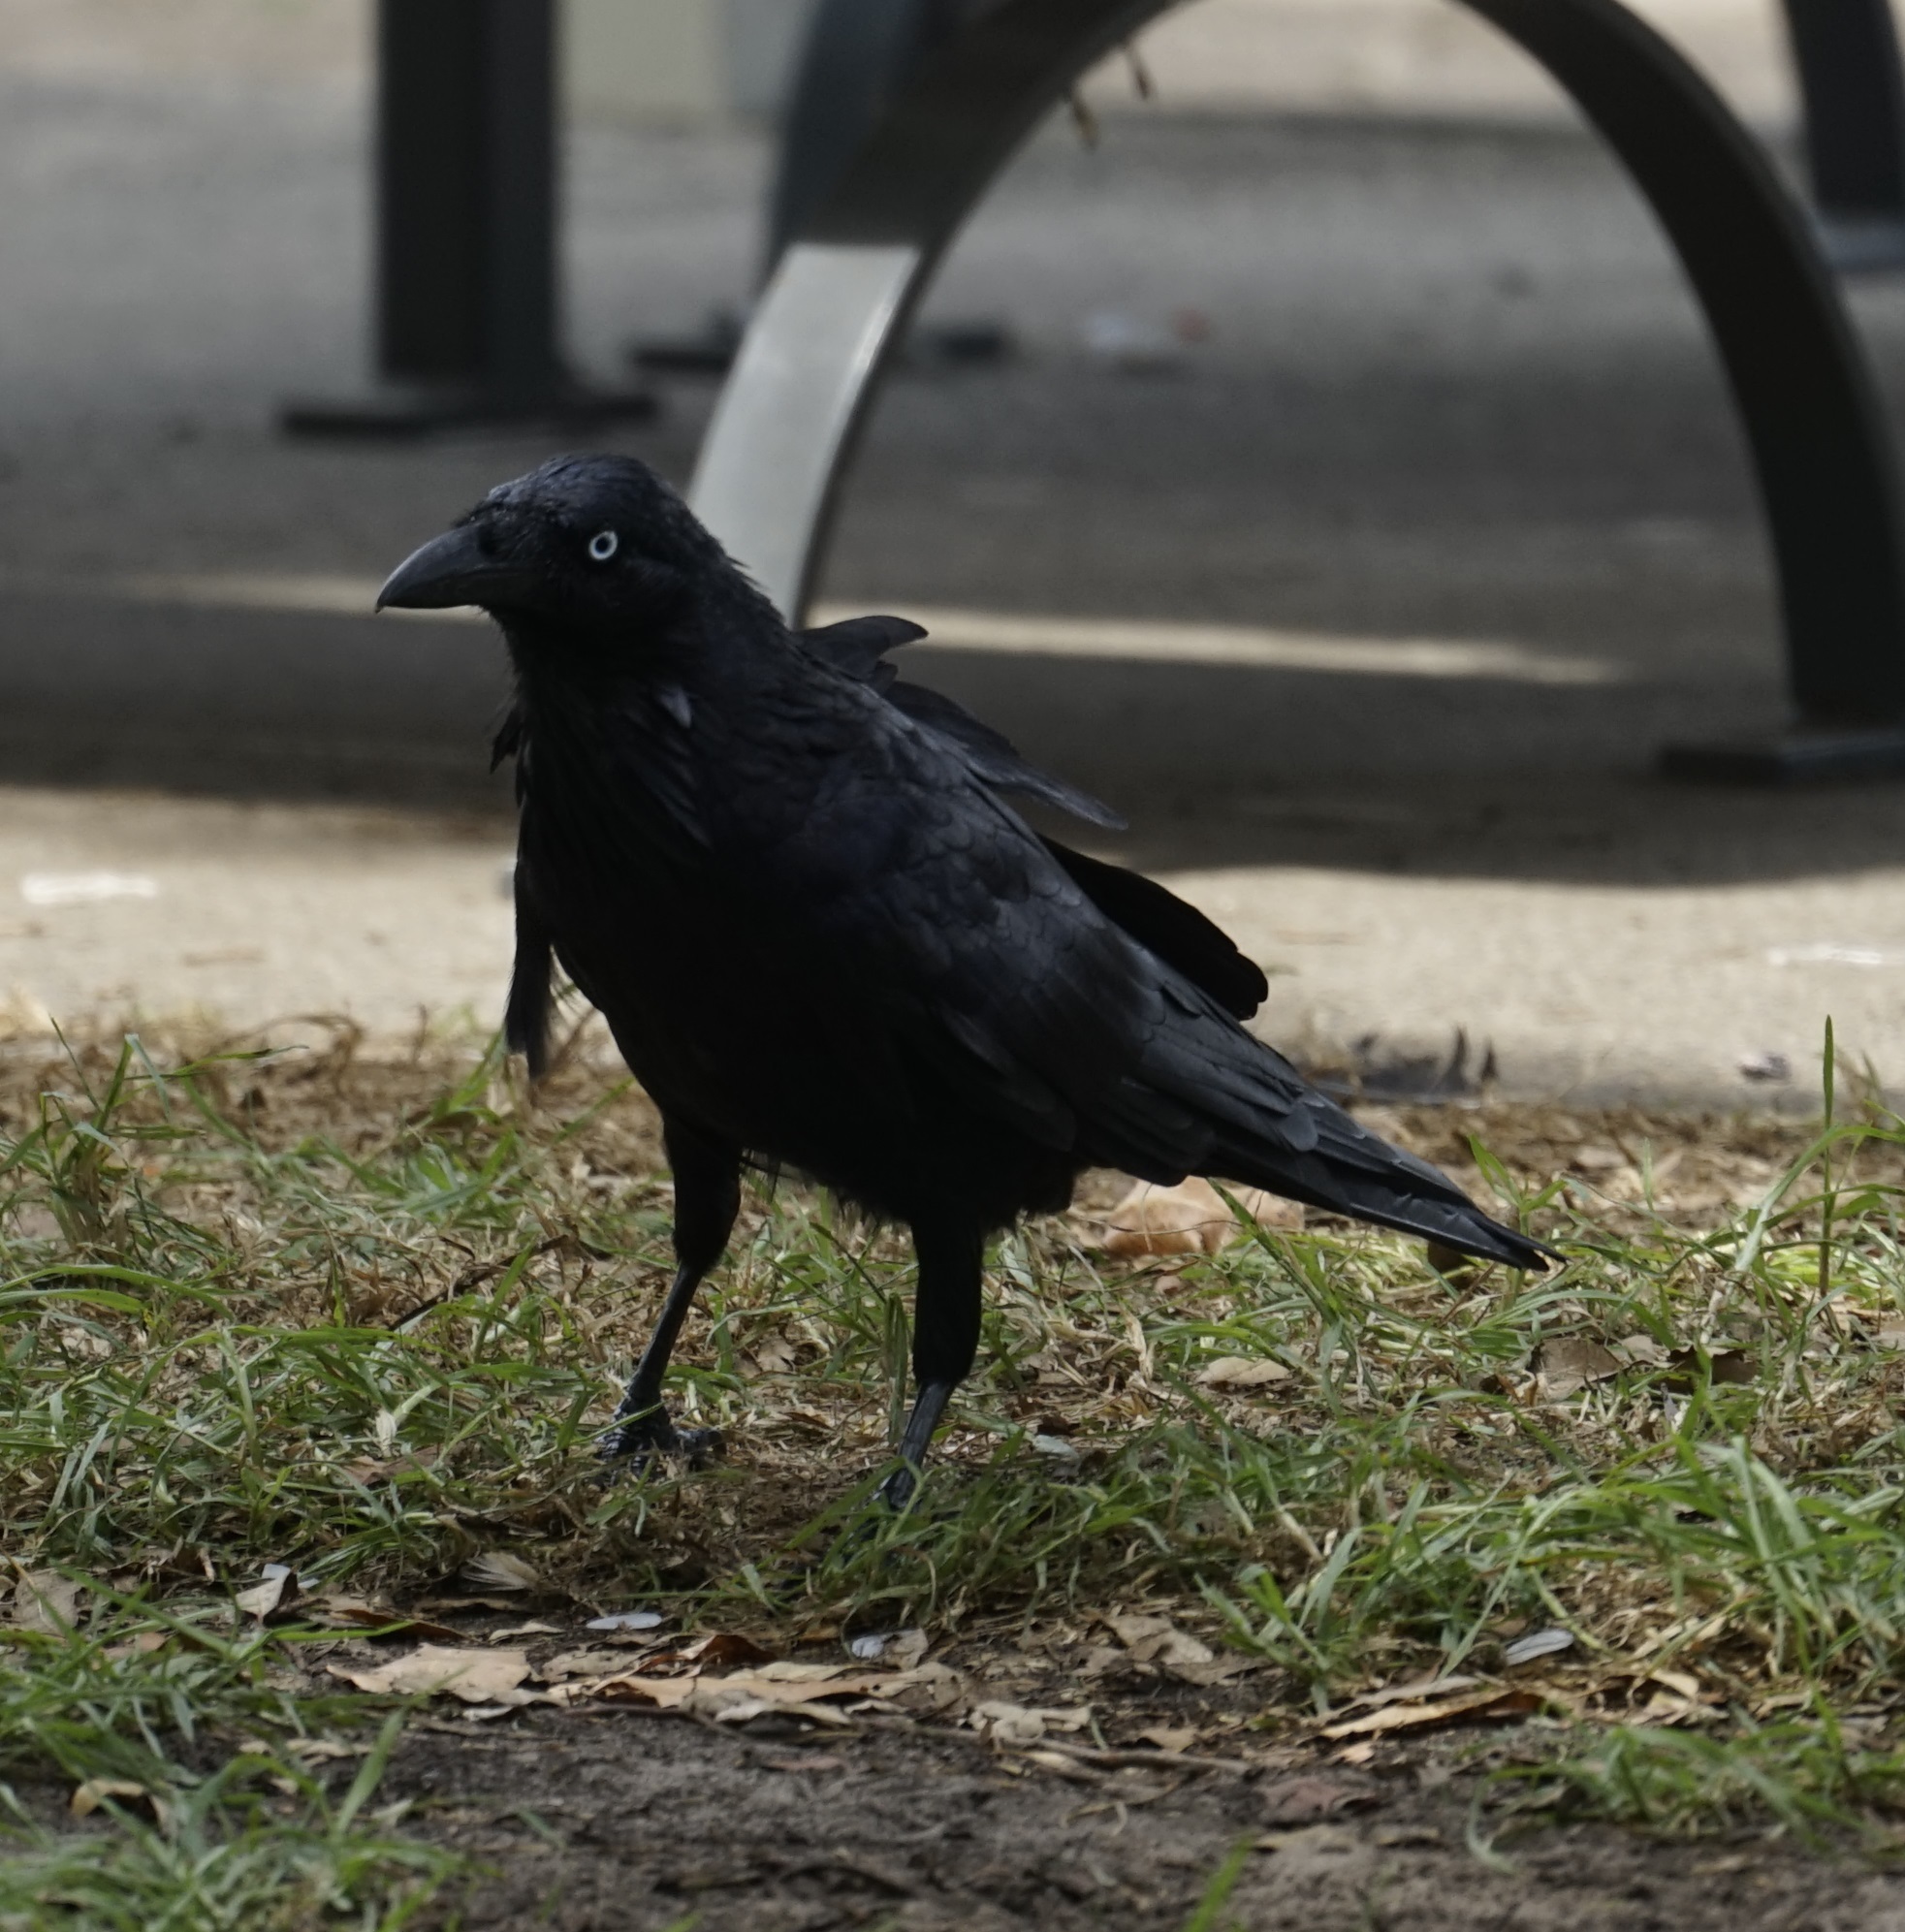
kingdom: Animalia
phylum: Chordata
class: Aves
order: Passeriformes
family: Corvidae
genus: Corvus
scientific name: Corvus coronoides
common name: Australian raven
